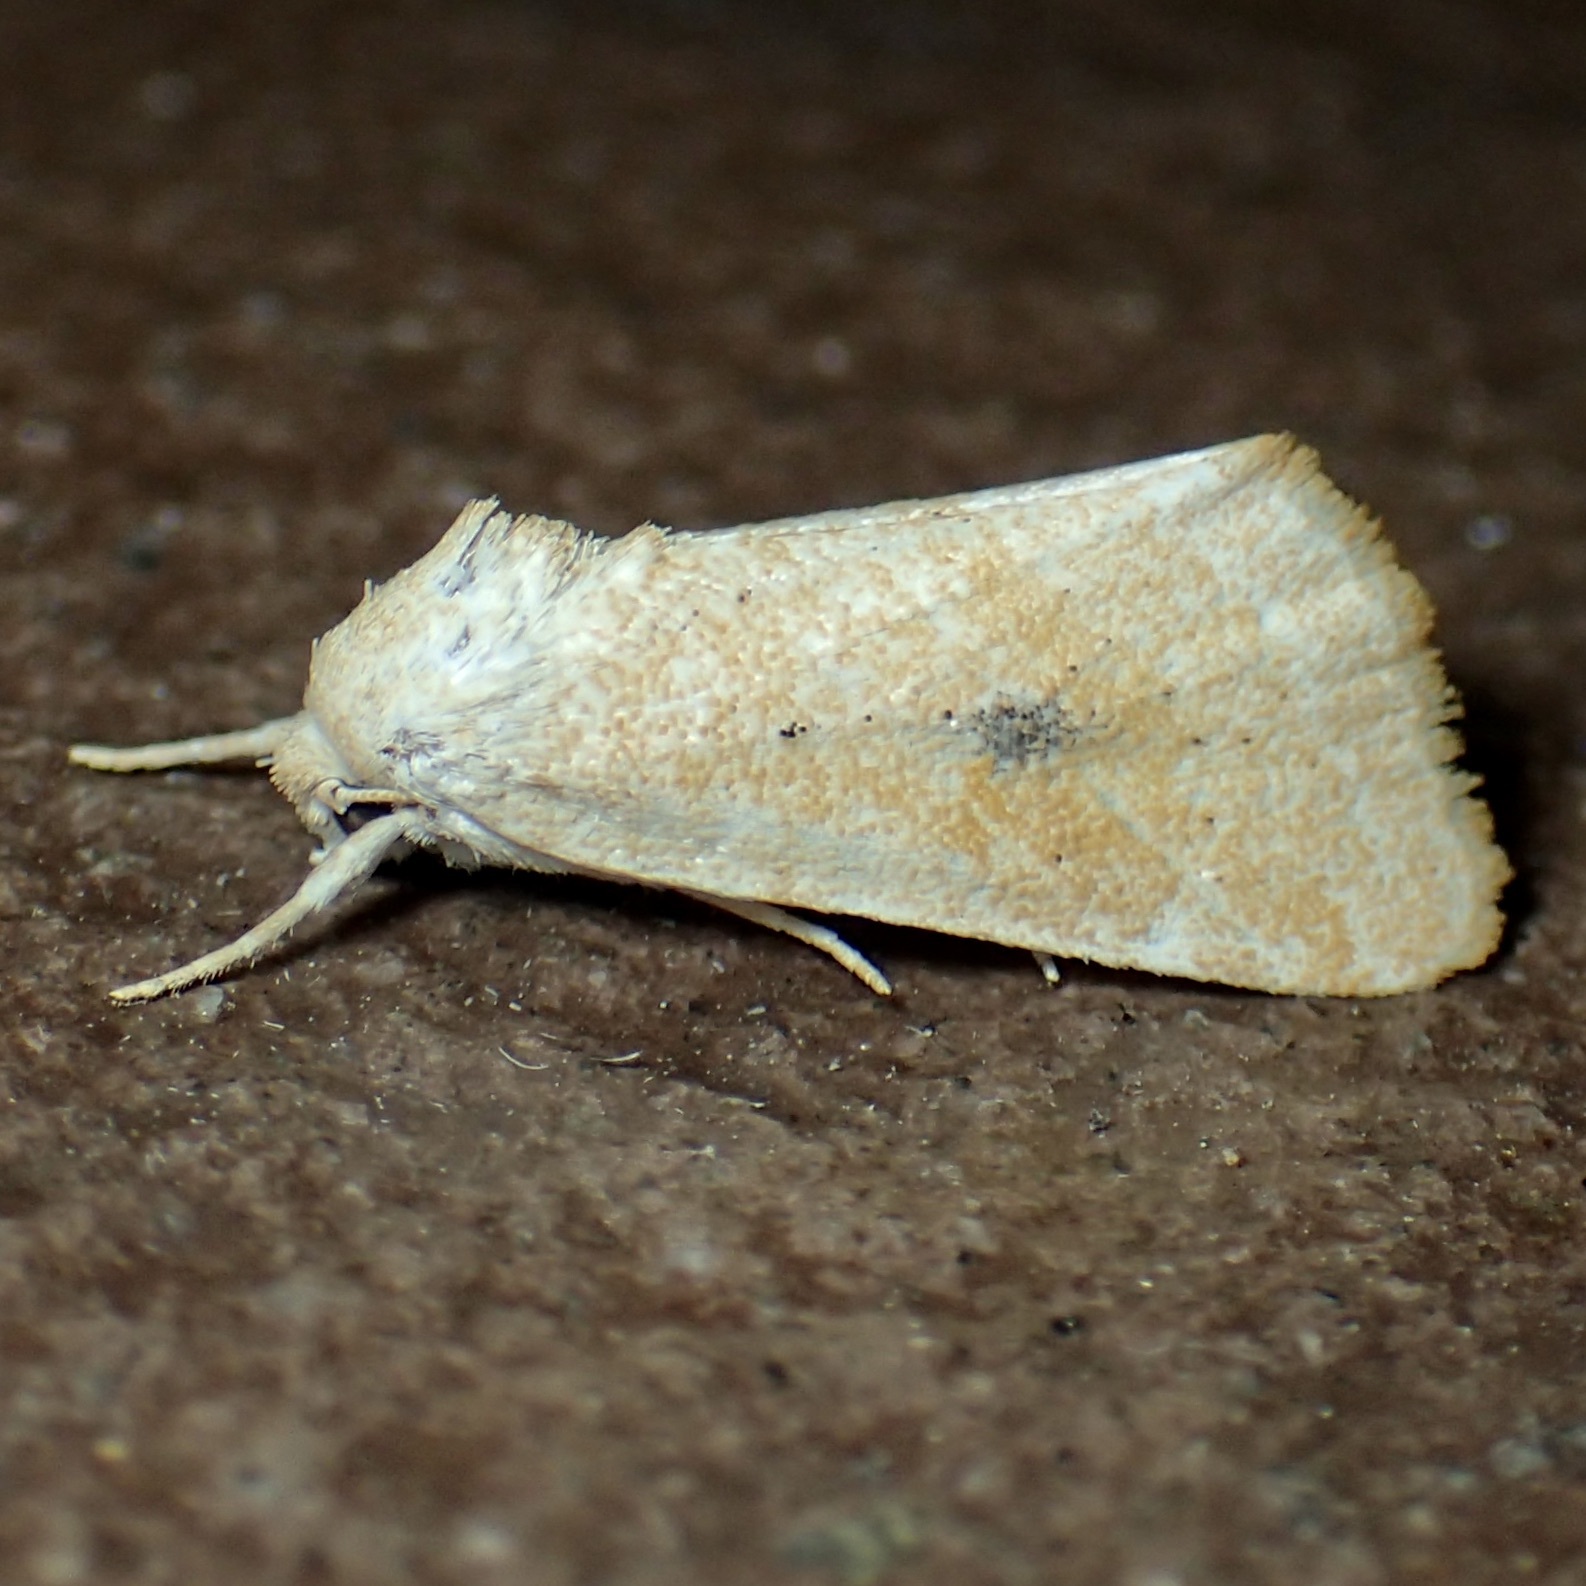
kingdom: Animalia
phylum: Arthropoda
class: Insecta
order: Lepidoptera
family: Noctuidae
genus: Trichocosmia
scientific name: Trichocosmia inornata
